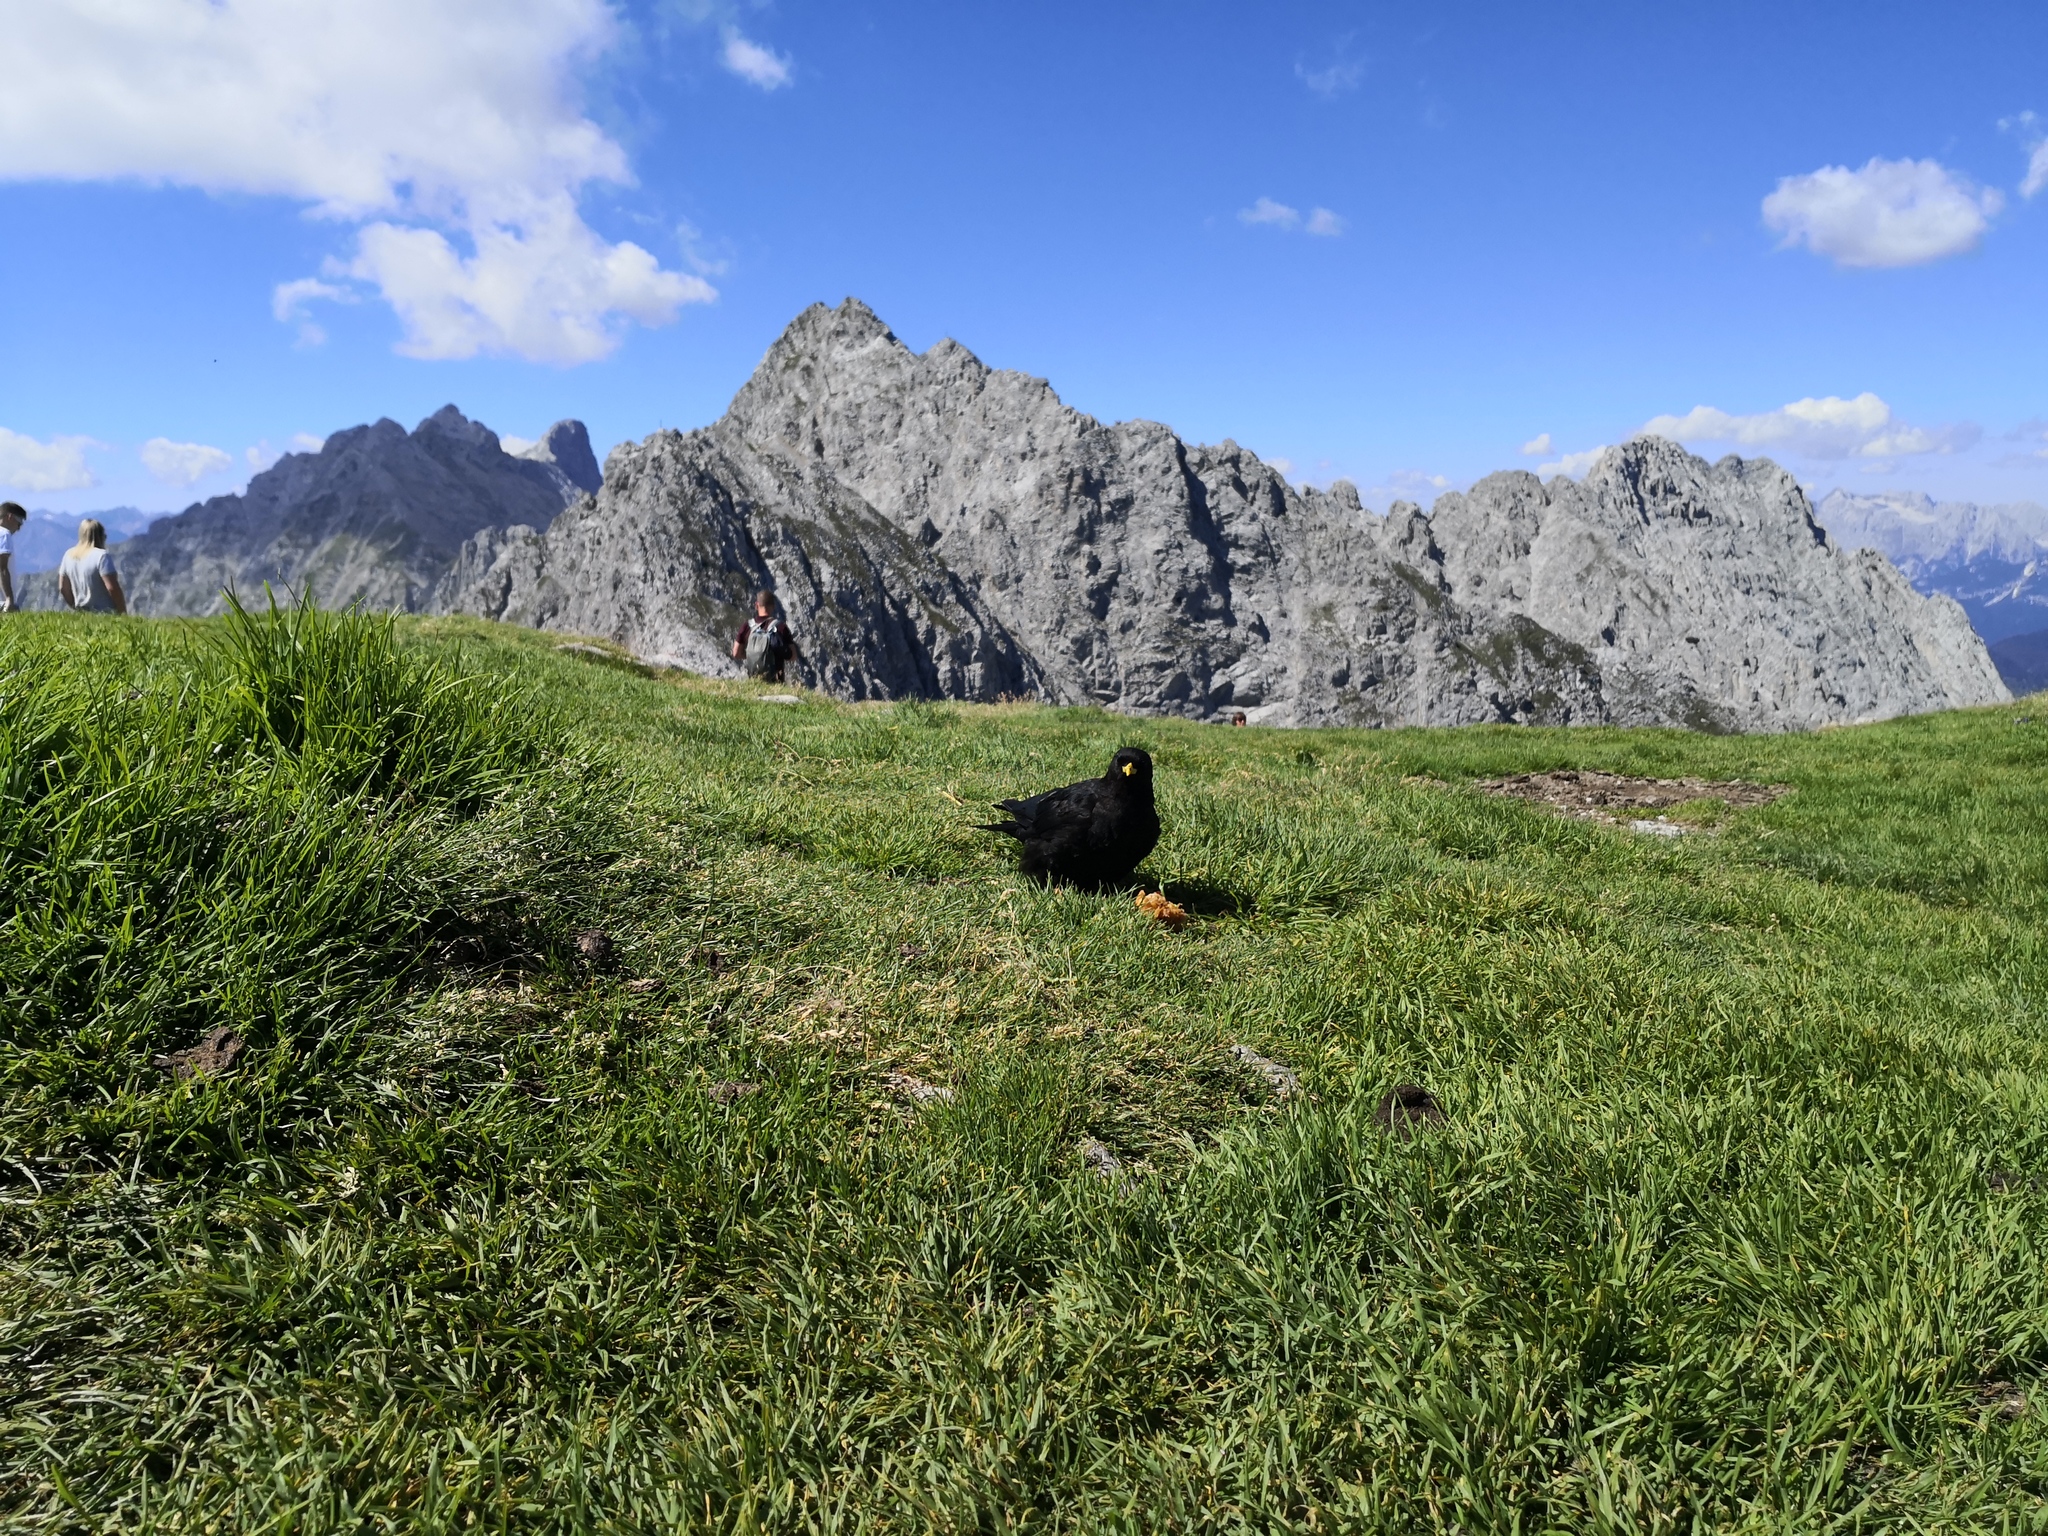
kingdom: Animalia
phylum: Chordata
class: Aves
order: Passeriformes
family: Corvidae
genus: Pyrrhocorax
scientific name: Pyrrhocorax graculus
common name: Alpine chough
